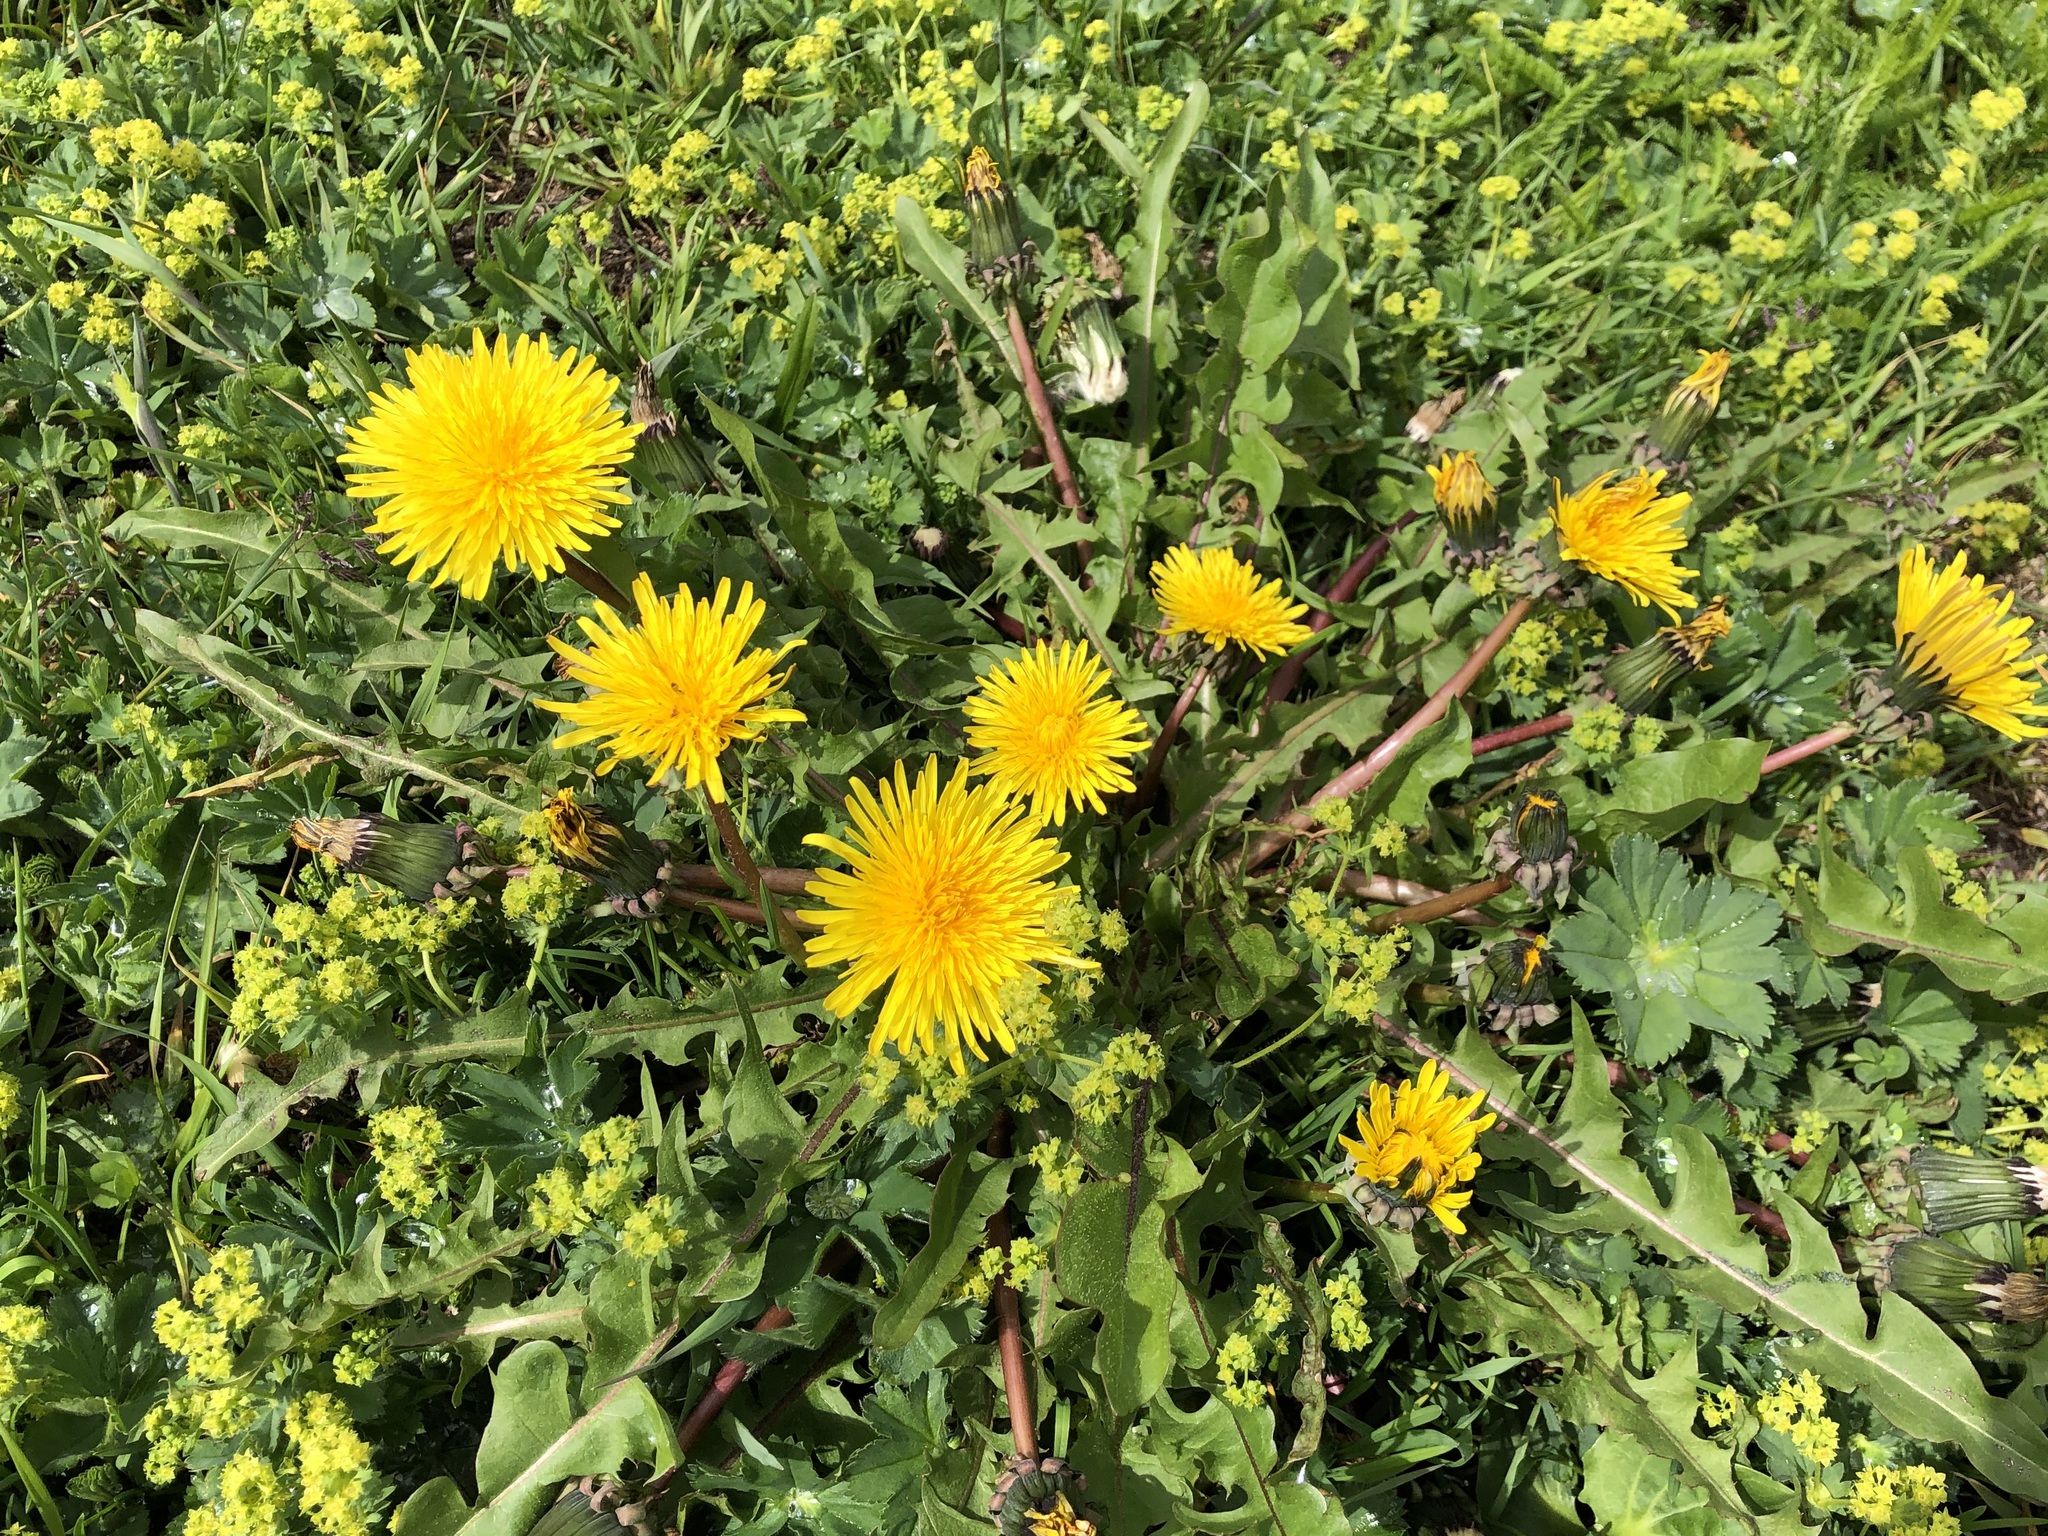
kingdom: Plantae
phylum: Tracheophyta
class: Magnoliopsida
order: Asterales
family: Asteraceae
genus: Taraxacum
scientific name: Taraxacum officinale
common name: Common dandelion
